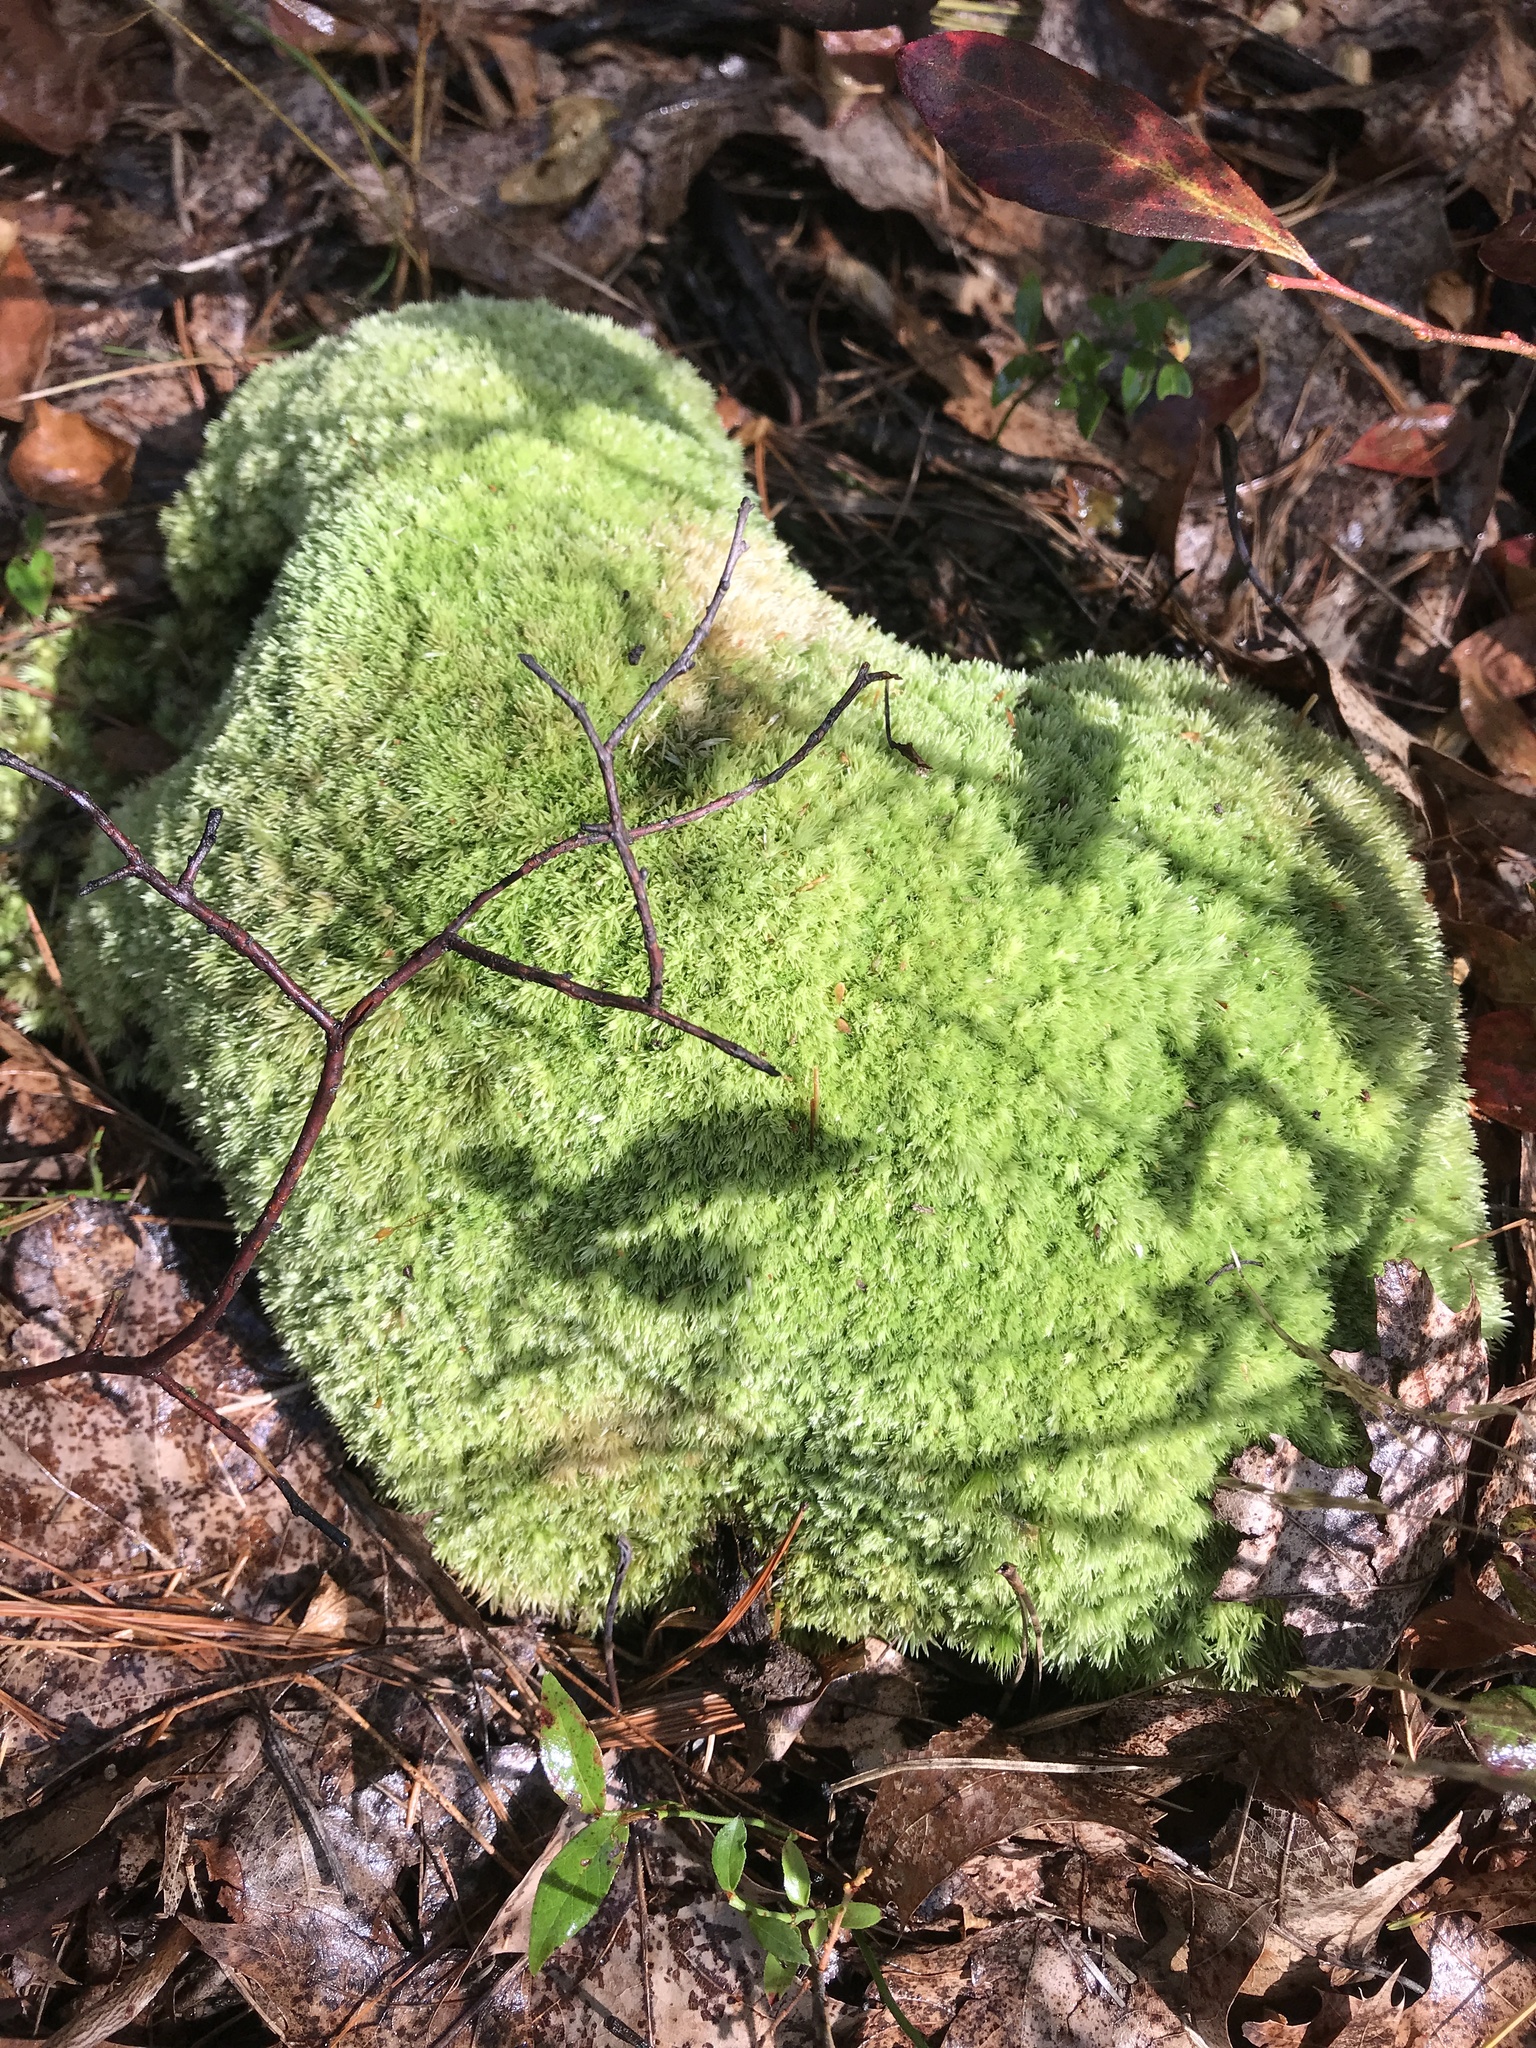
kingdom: Plantae
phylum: Bryophyta
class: Bryopsida
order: Dicranales
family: Leucobryaceae
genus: Leucobryum
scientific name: Leucobryum glaucum
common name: Large white-moss
